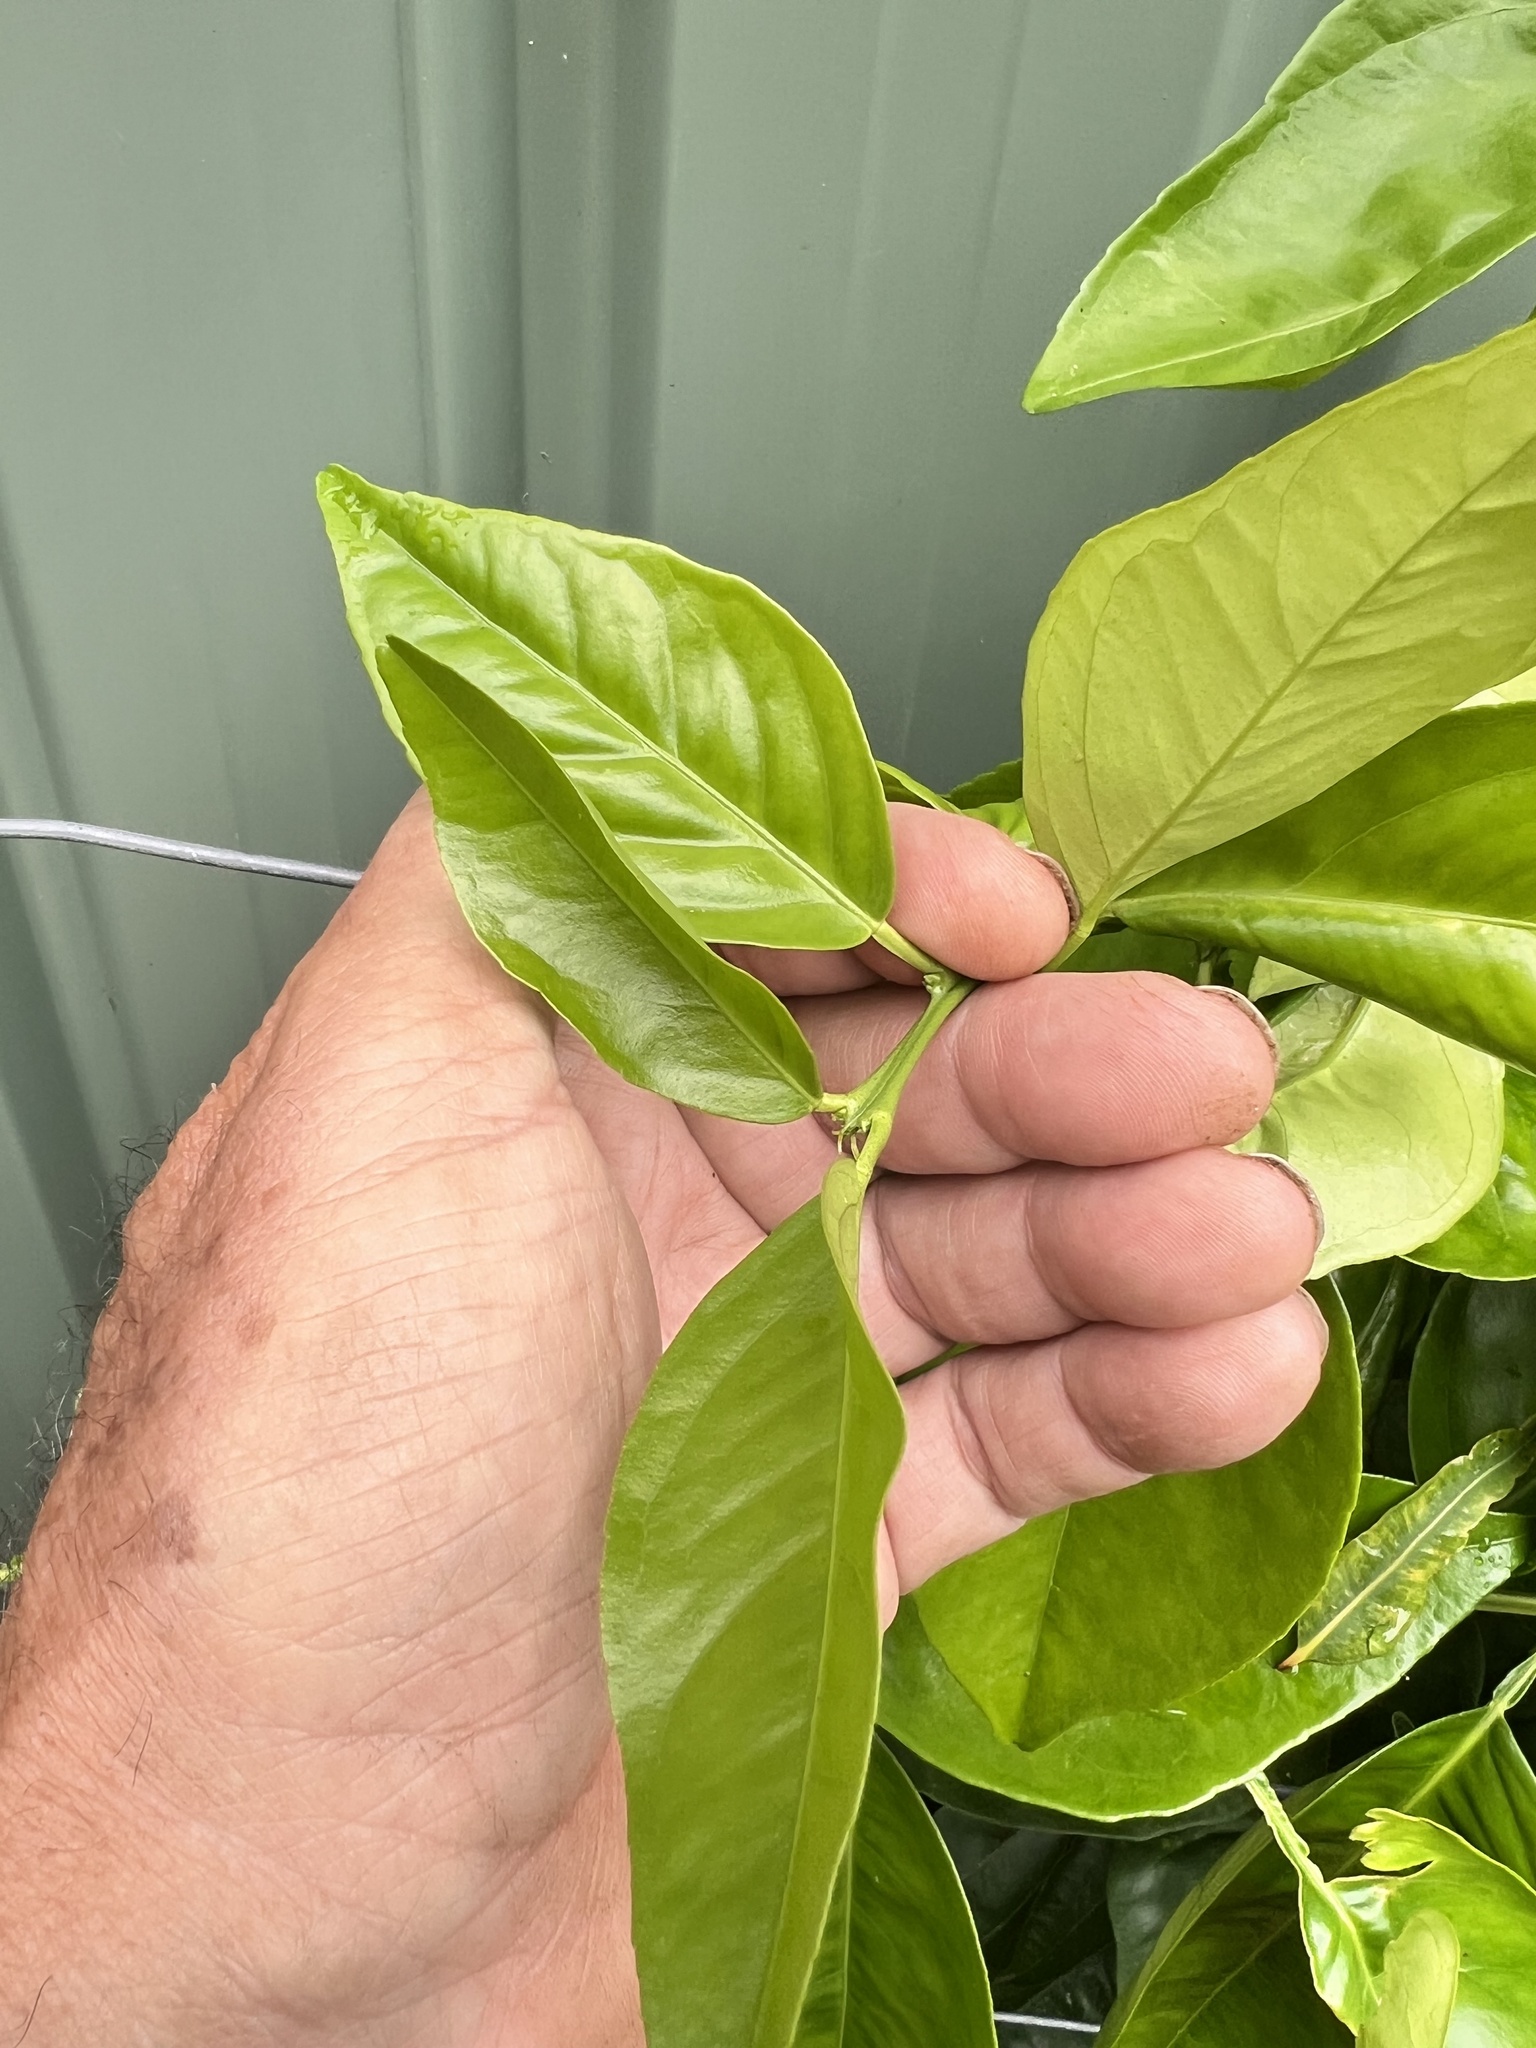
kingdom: Animalia
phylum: Arthropoda
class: Insecta
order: Lepidoptera
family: Gracillariidae
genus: Phyllocnistis
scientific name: Phyllocnistis citrella
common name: Citrus leafminer
